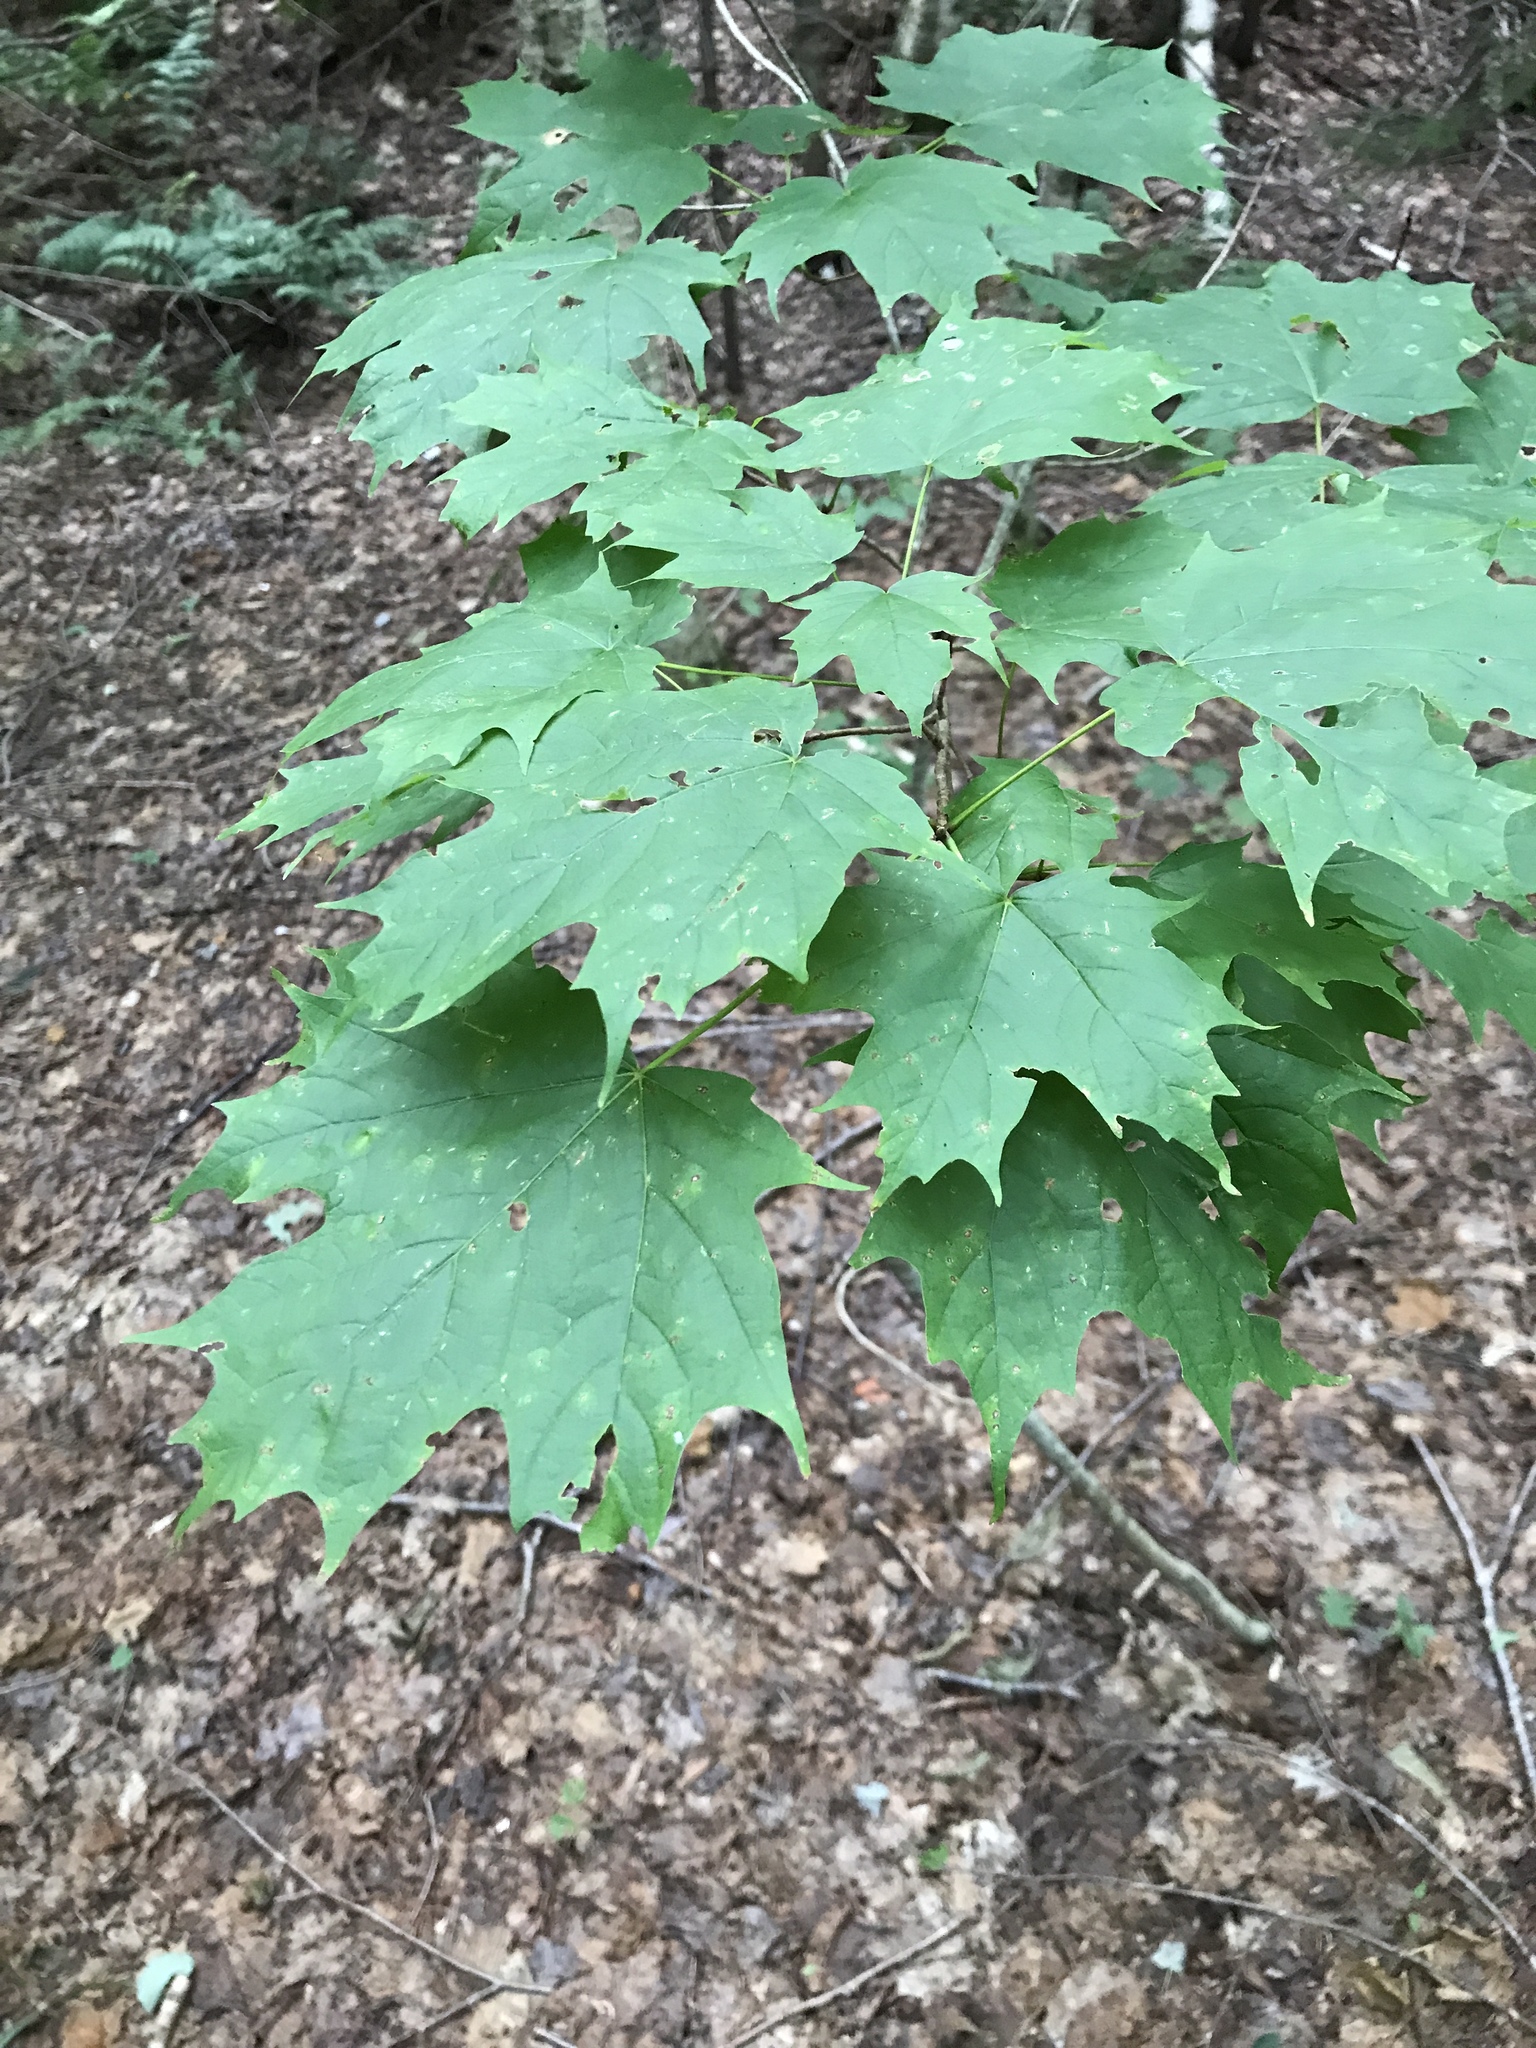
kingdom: Plantae
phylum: Tracheophyta
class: Magnoliopsida
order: Sapindales
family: Sapindaceae
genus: Acer
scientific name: Acer saccharum
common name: Sugar maple
